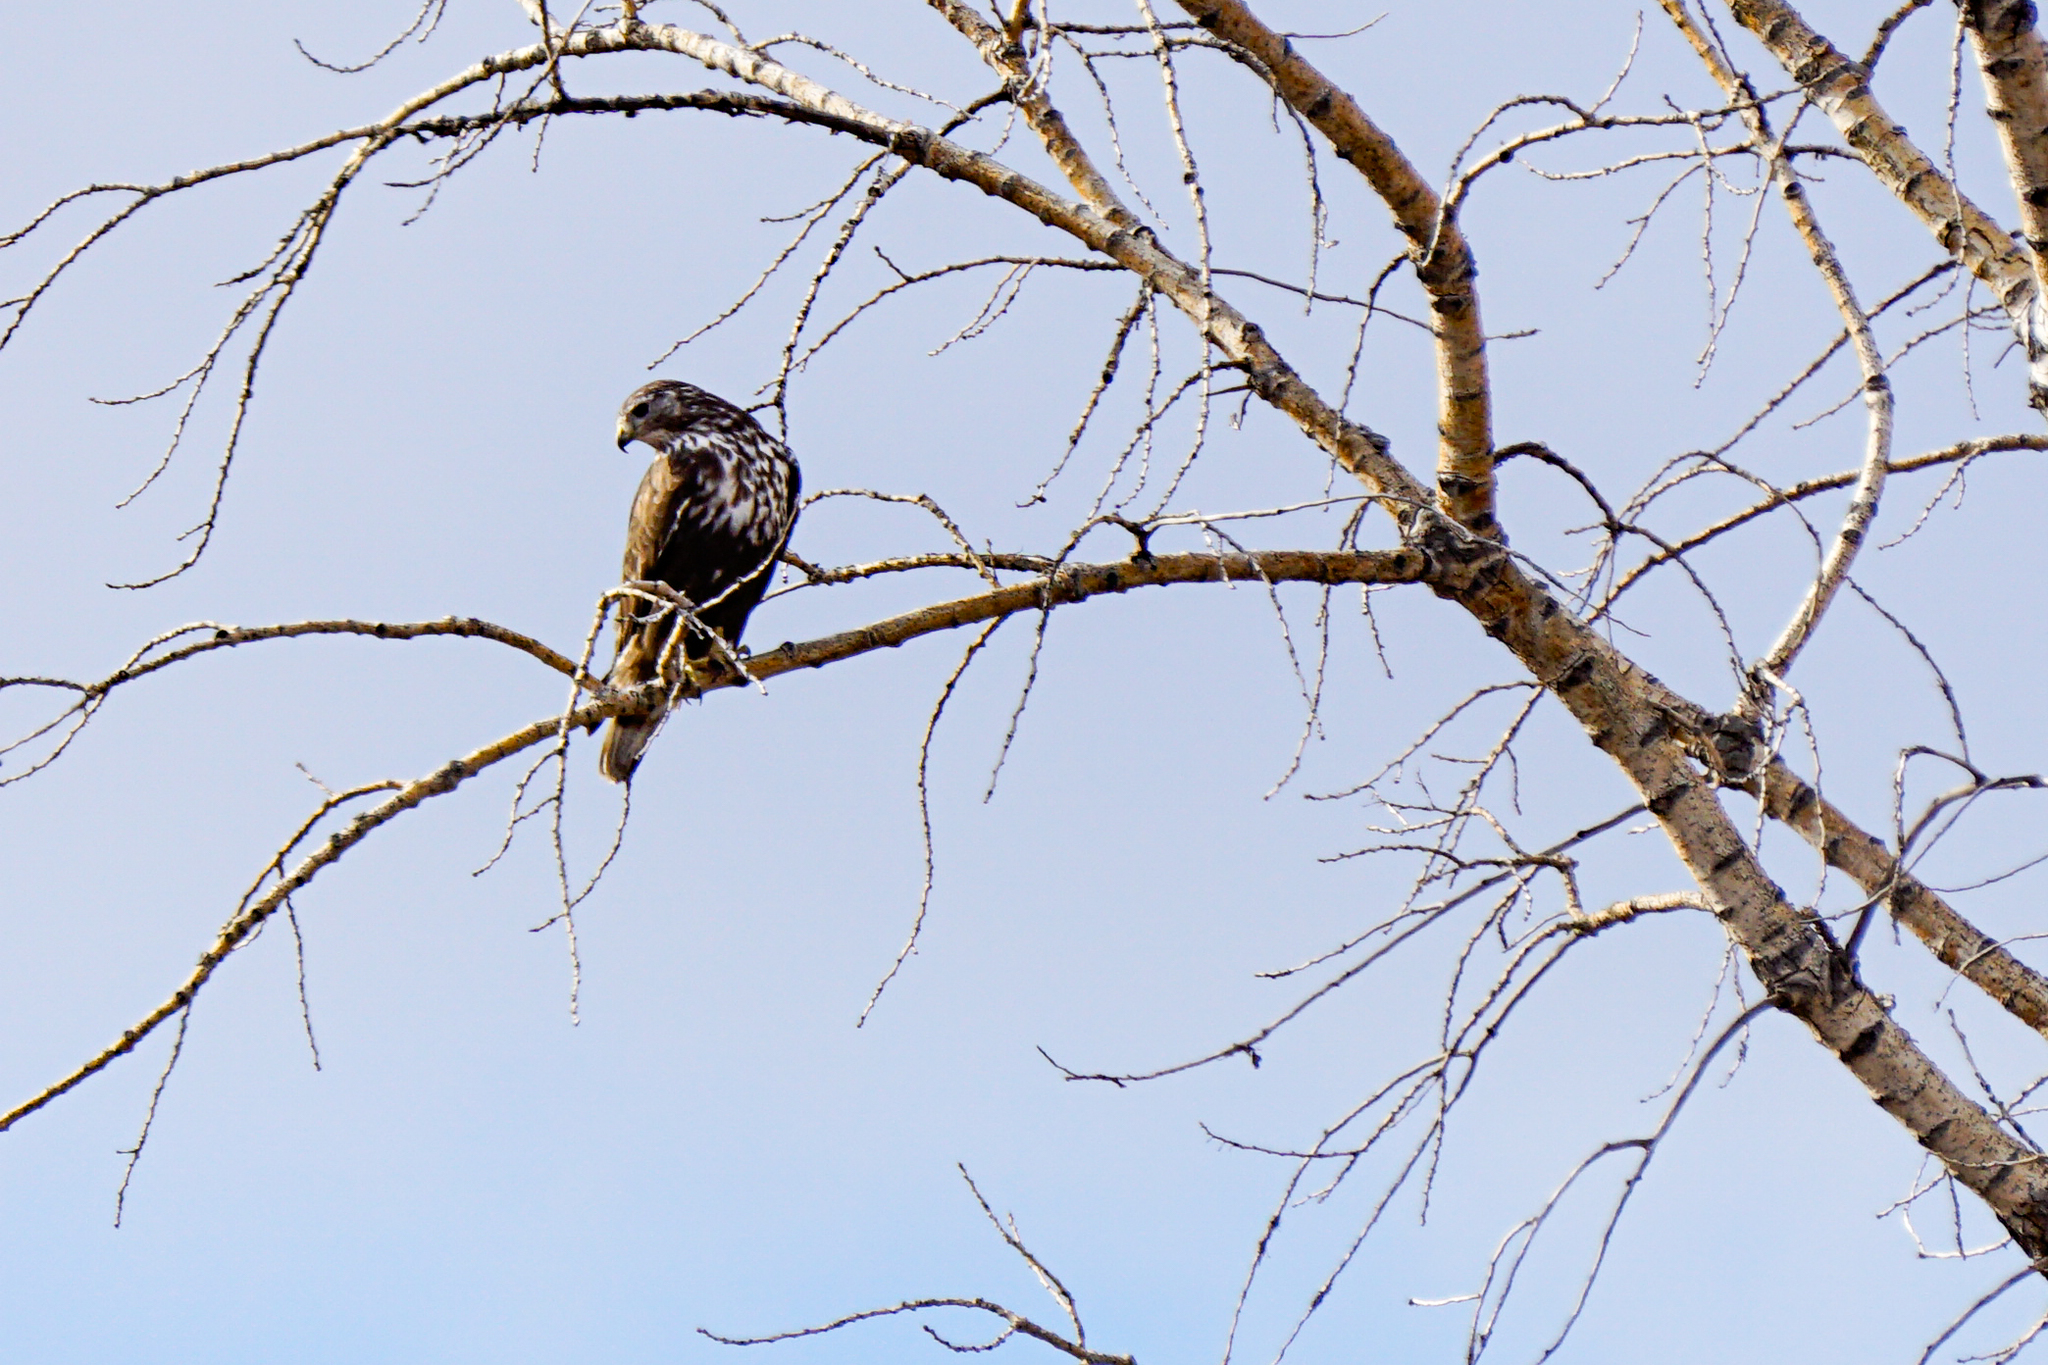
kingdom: Animalia
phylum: Chordata
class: Aves
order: Accipitriformes
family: Accipitridae
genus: Buteo
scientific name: Buteo jamaicensis
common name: Red-tailed hawk
